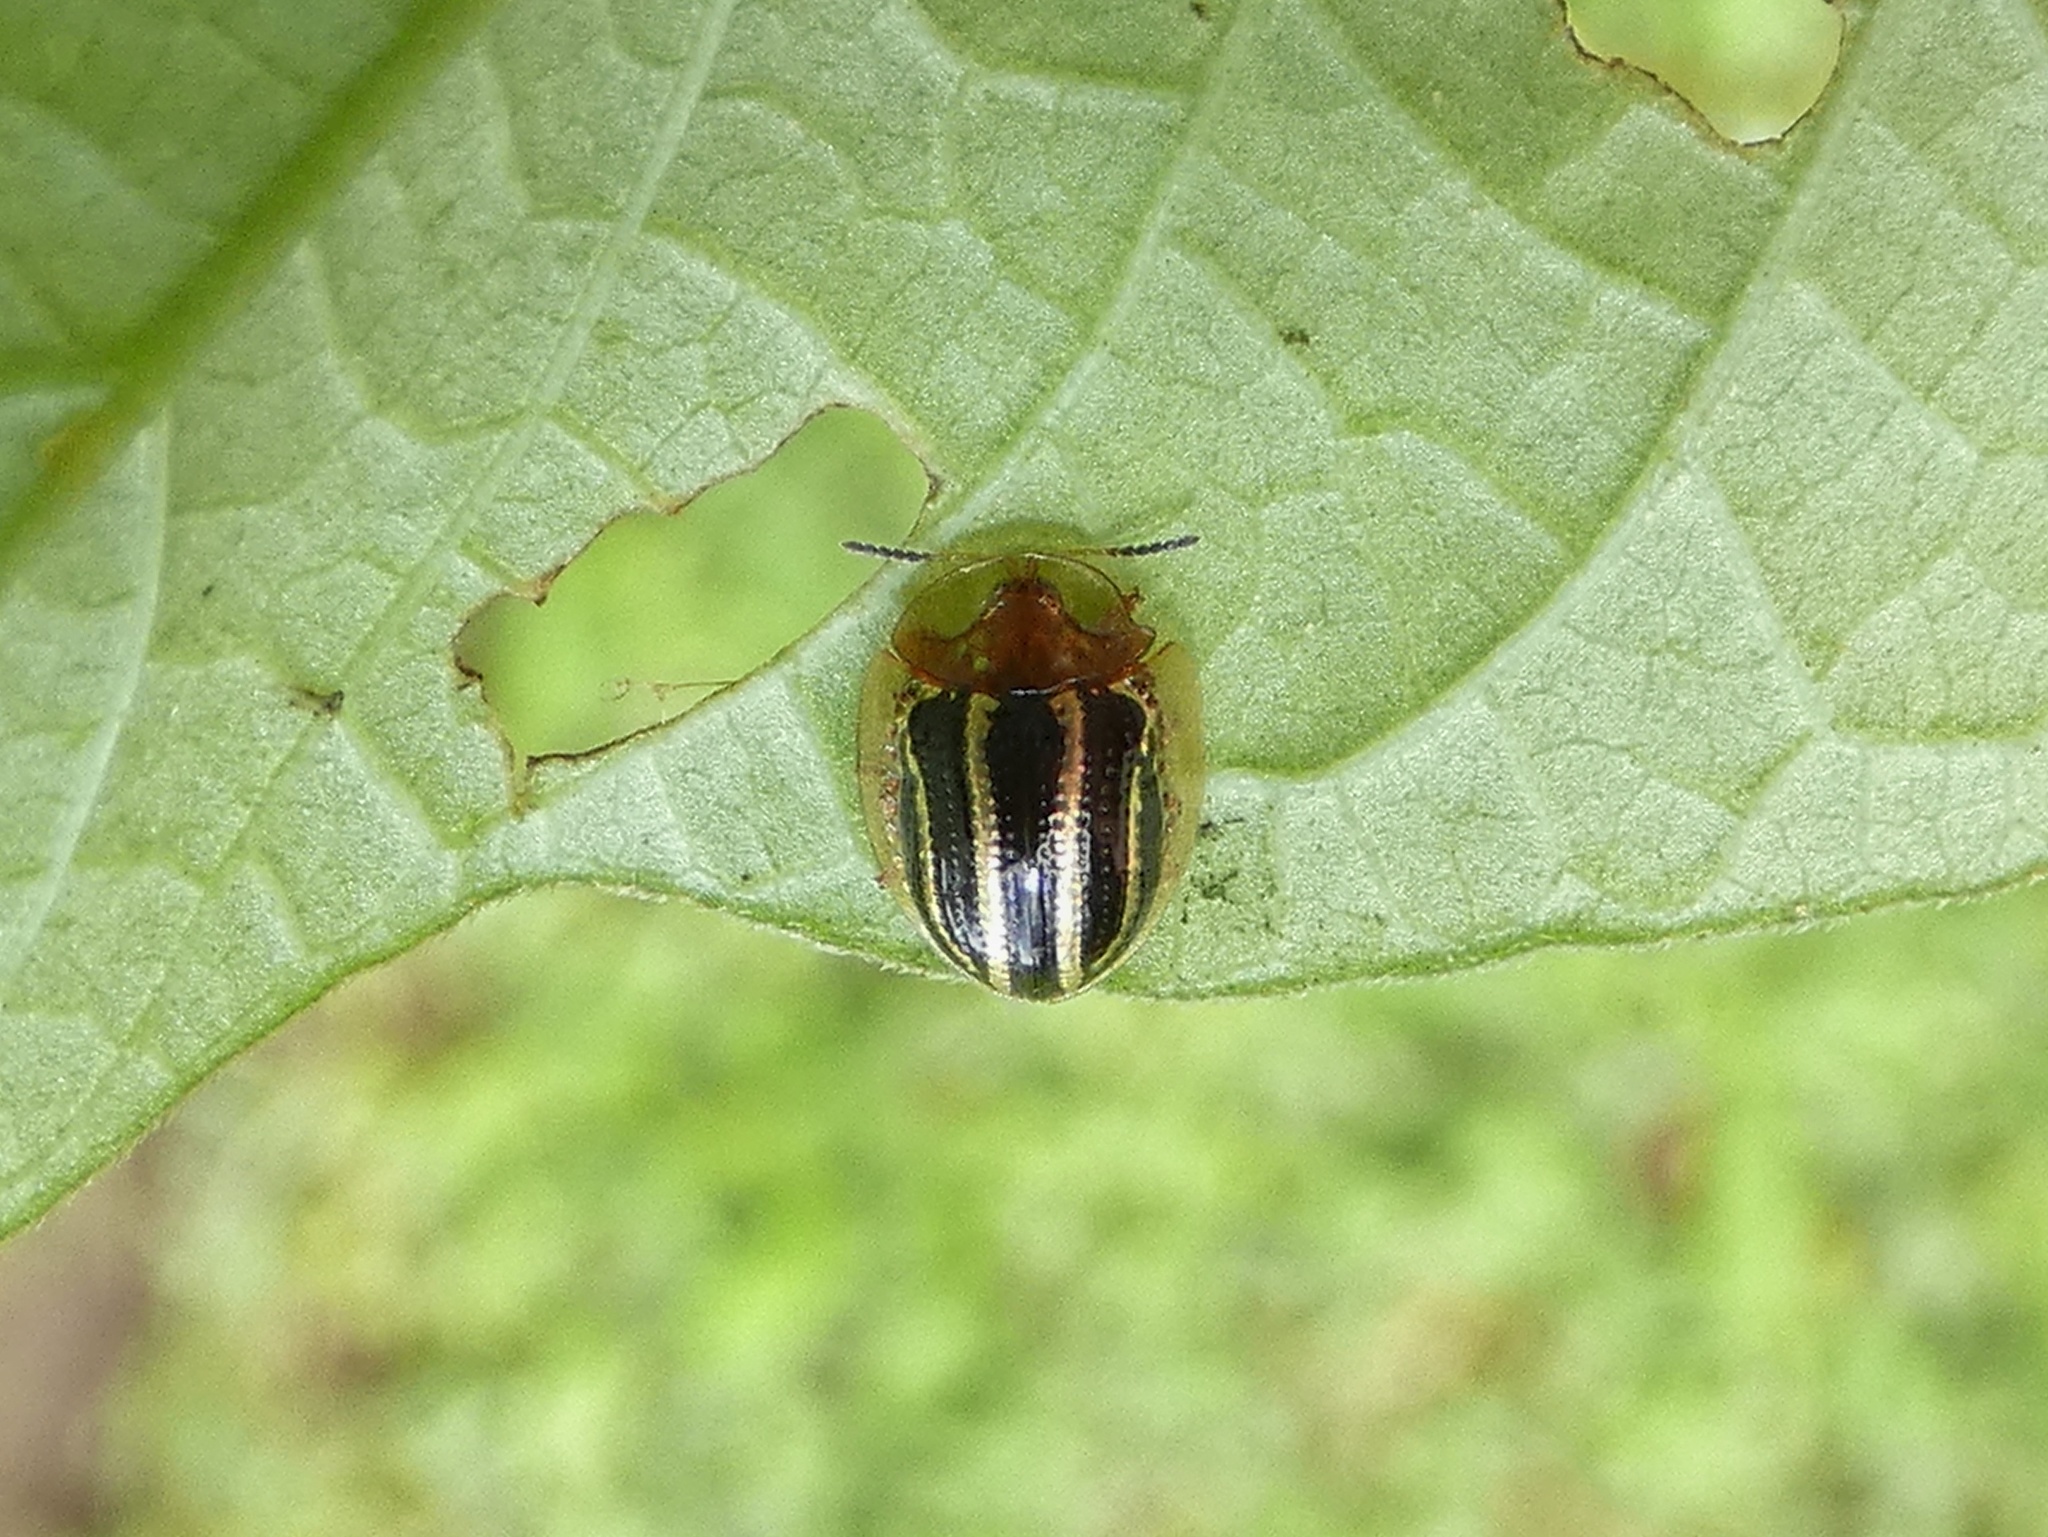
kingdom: Animalia
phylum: Arthropoda
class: Insecta
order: Coleoptera
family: Chrysomelidae
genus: Agroiconota
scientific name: Agroiconota propinqua
